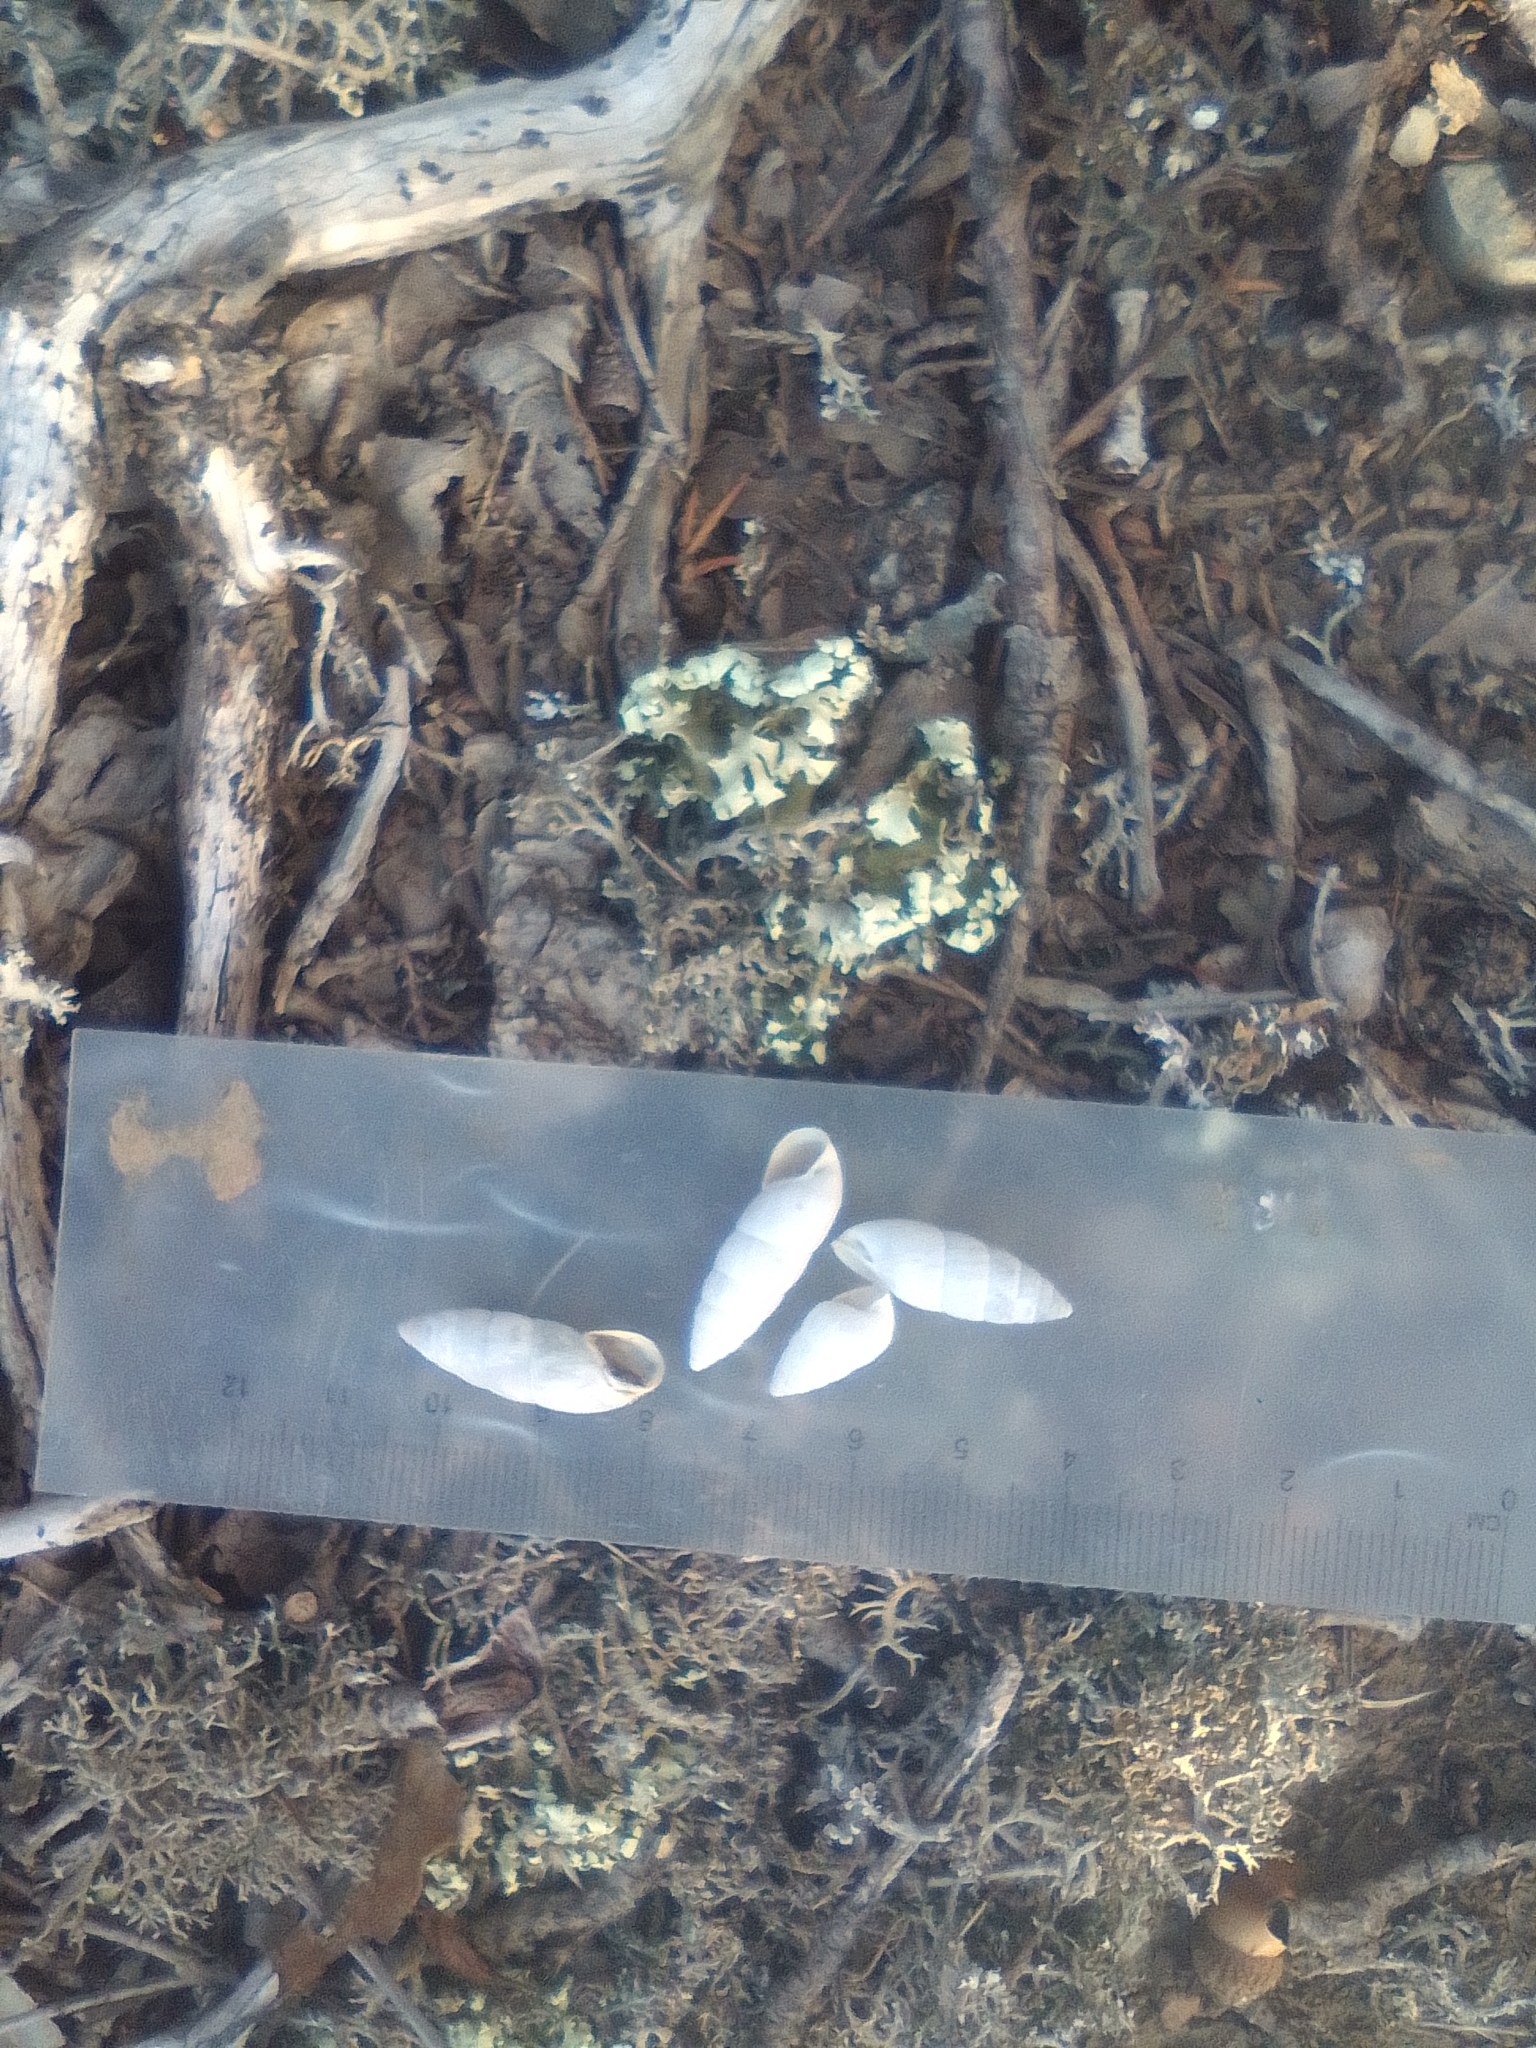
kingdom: Animalia
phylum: Mollusca
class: Gastropoda
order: Stylommatophora
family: Enidae
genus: Brephulopsis
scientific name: Brephulopsis cylindrica
